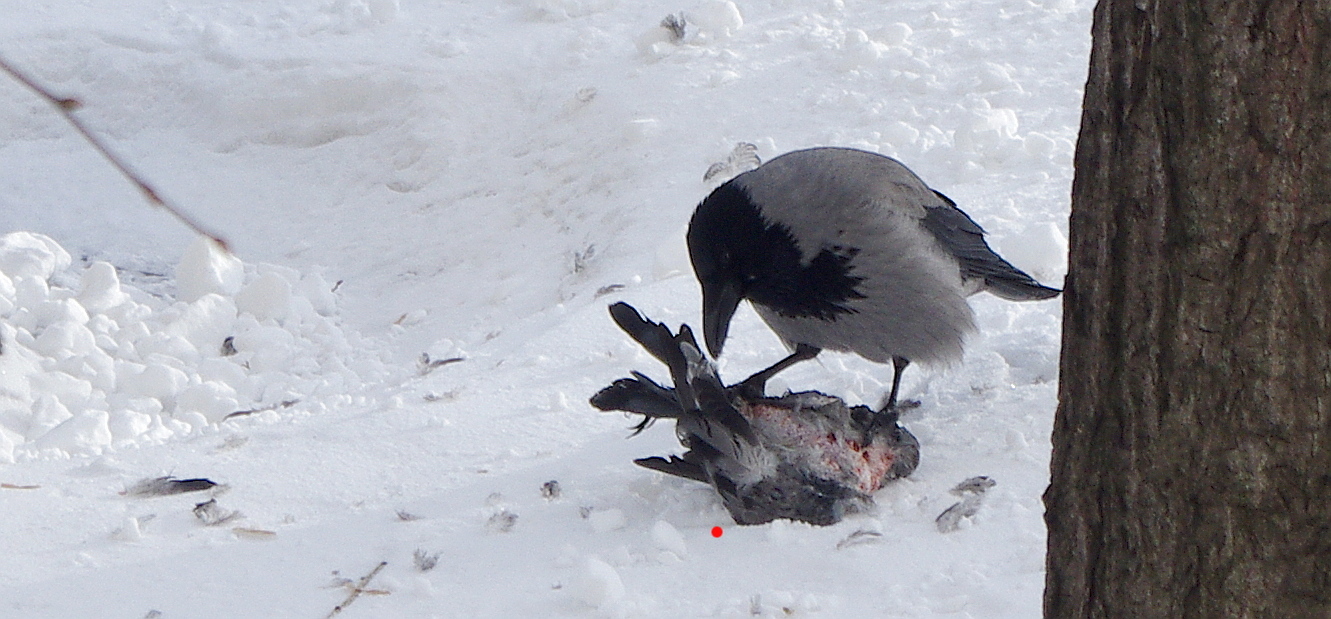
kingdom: Animalia
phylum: Chordata
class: Aves
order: Columbiformes
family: Columbidae
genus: Columba
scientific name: Columba livia
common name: Rock pigeon
